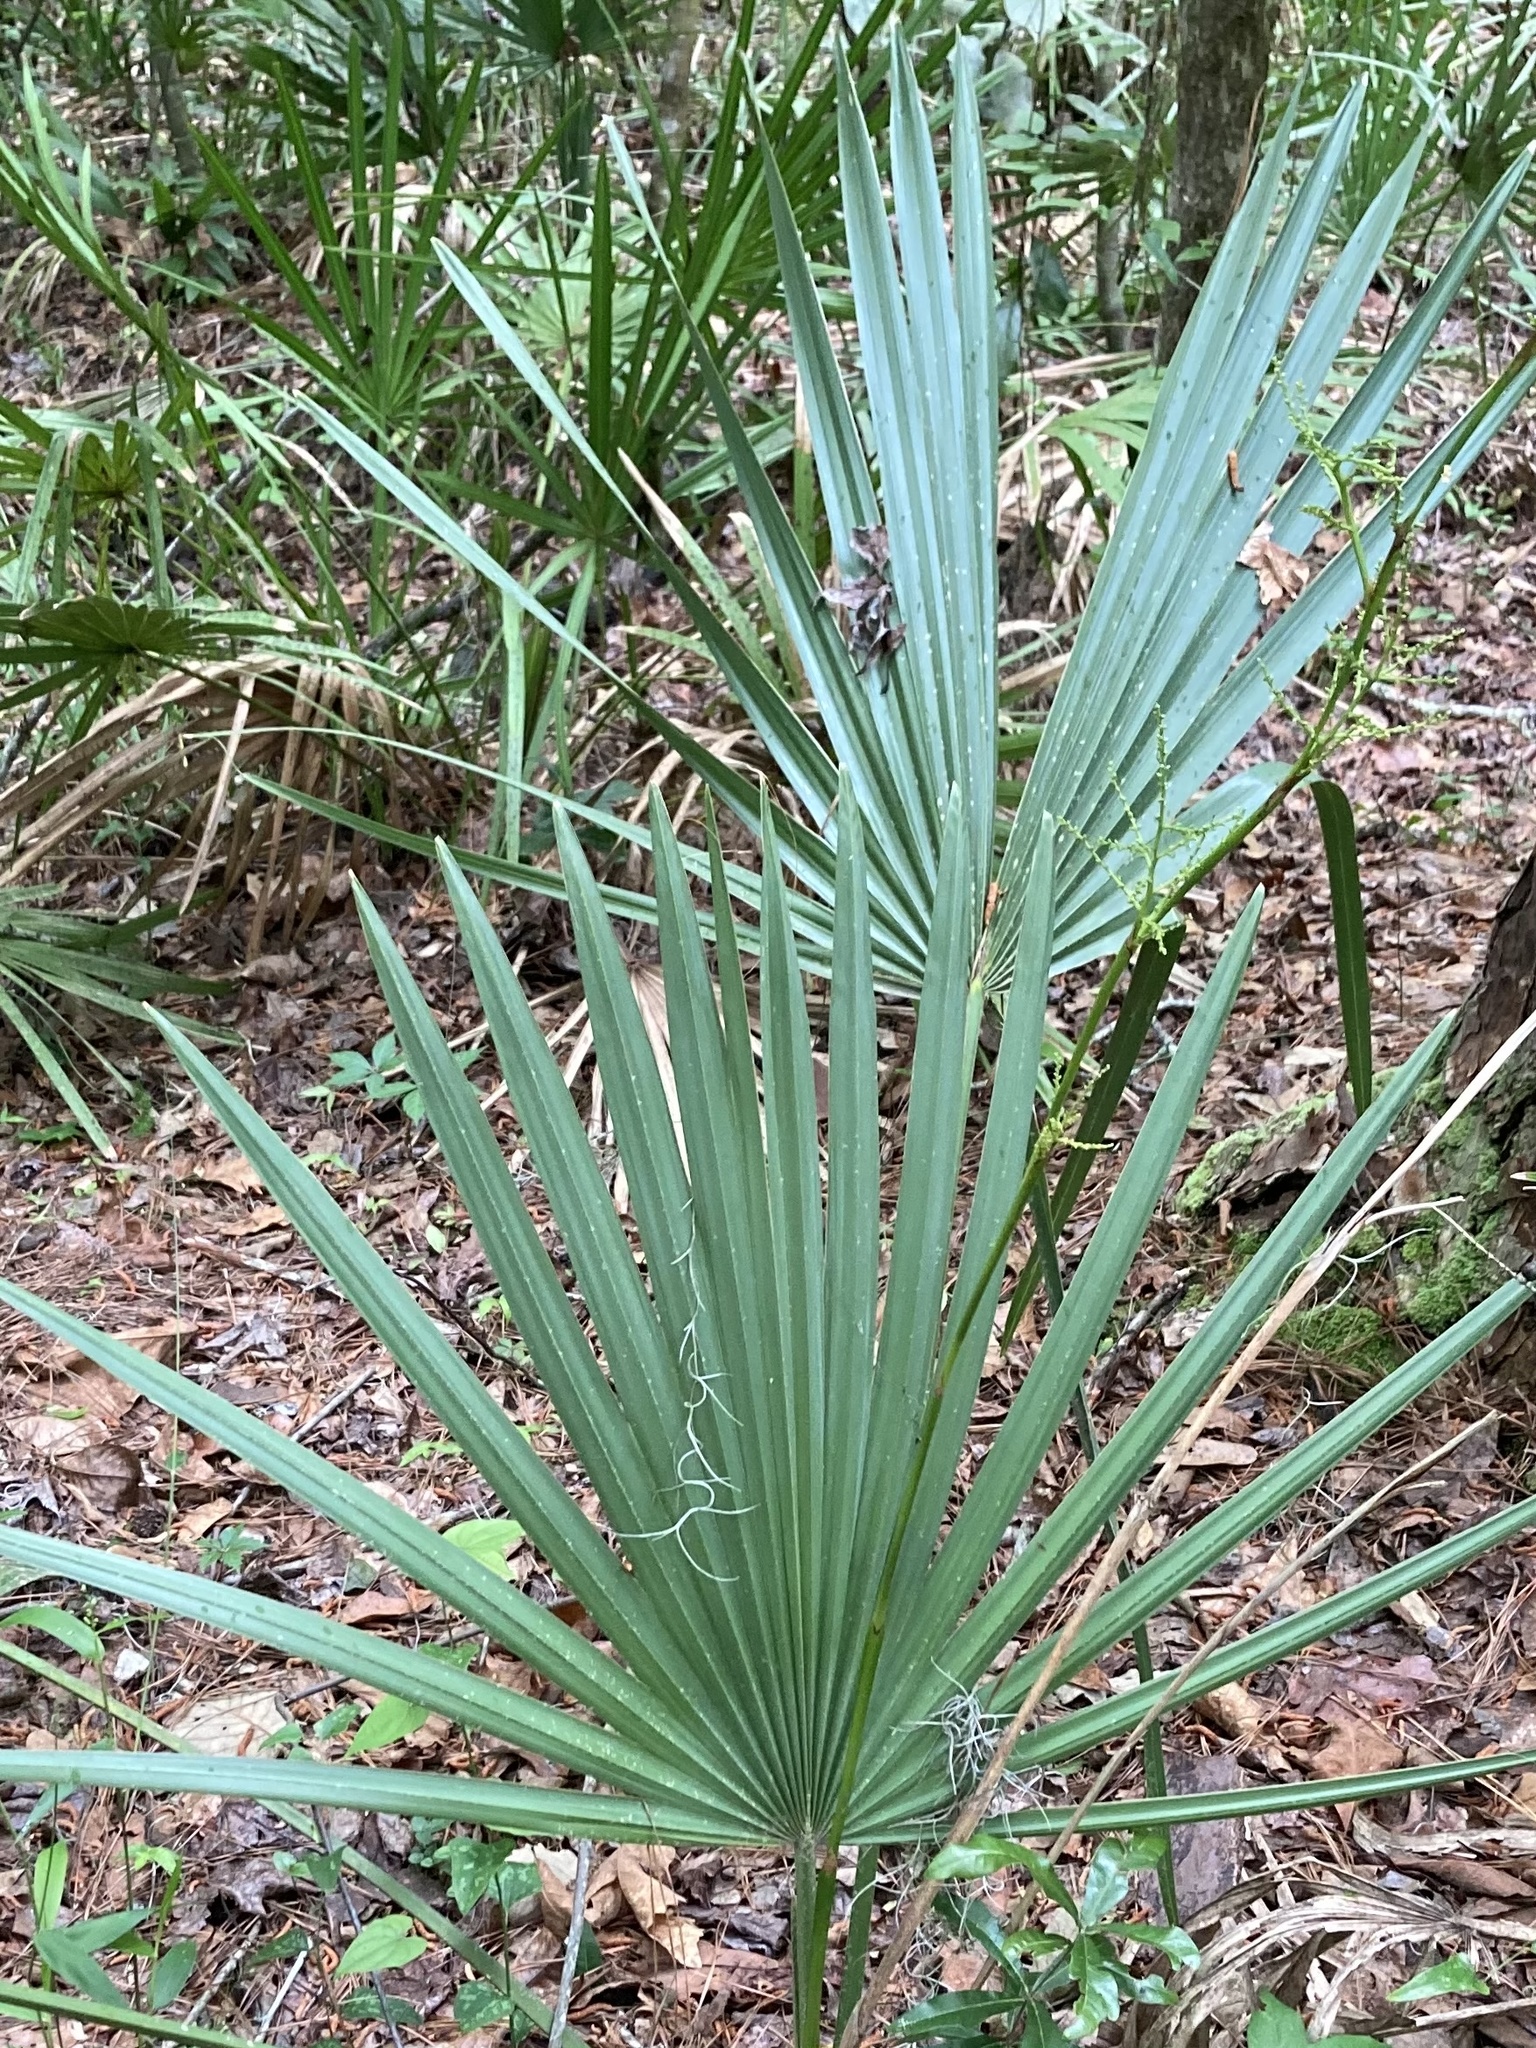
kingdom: Plantae
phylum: Tracheophyta
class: Liliopsida
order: Arecales
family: Arecaceae
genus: Sabal
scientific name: Sabal minor
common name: Dwarf palmetto
